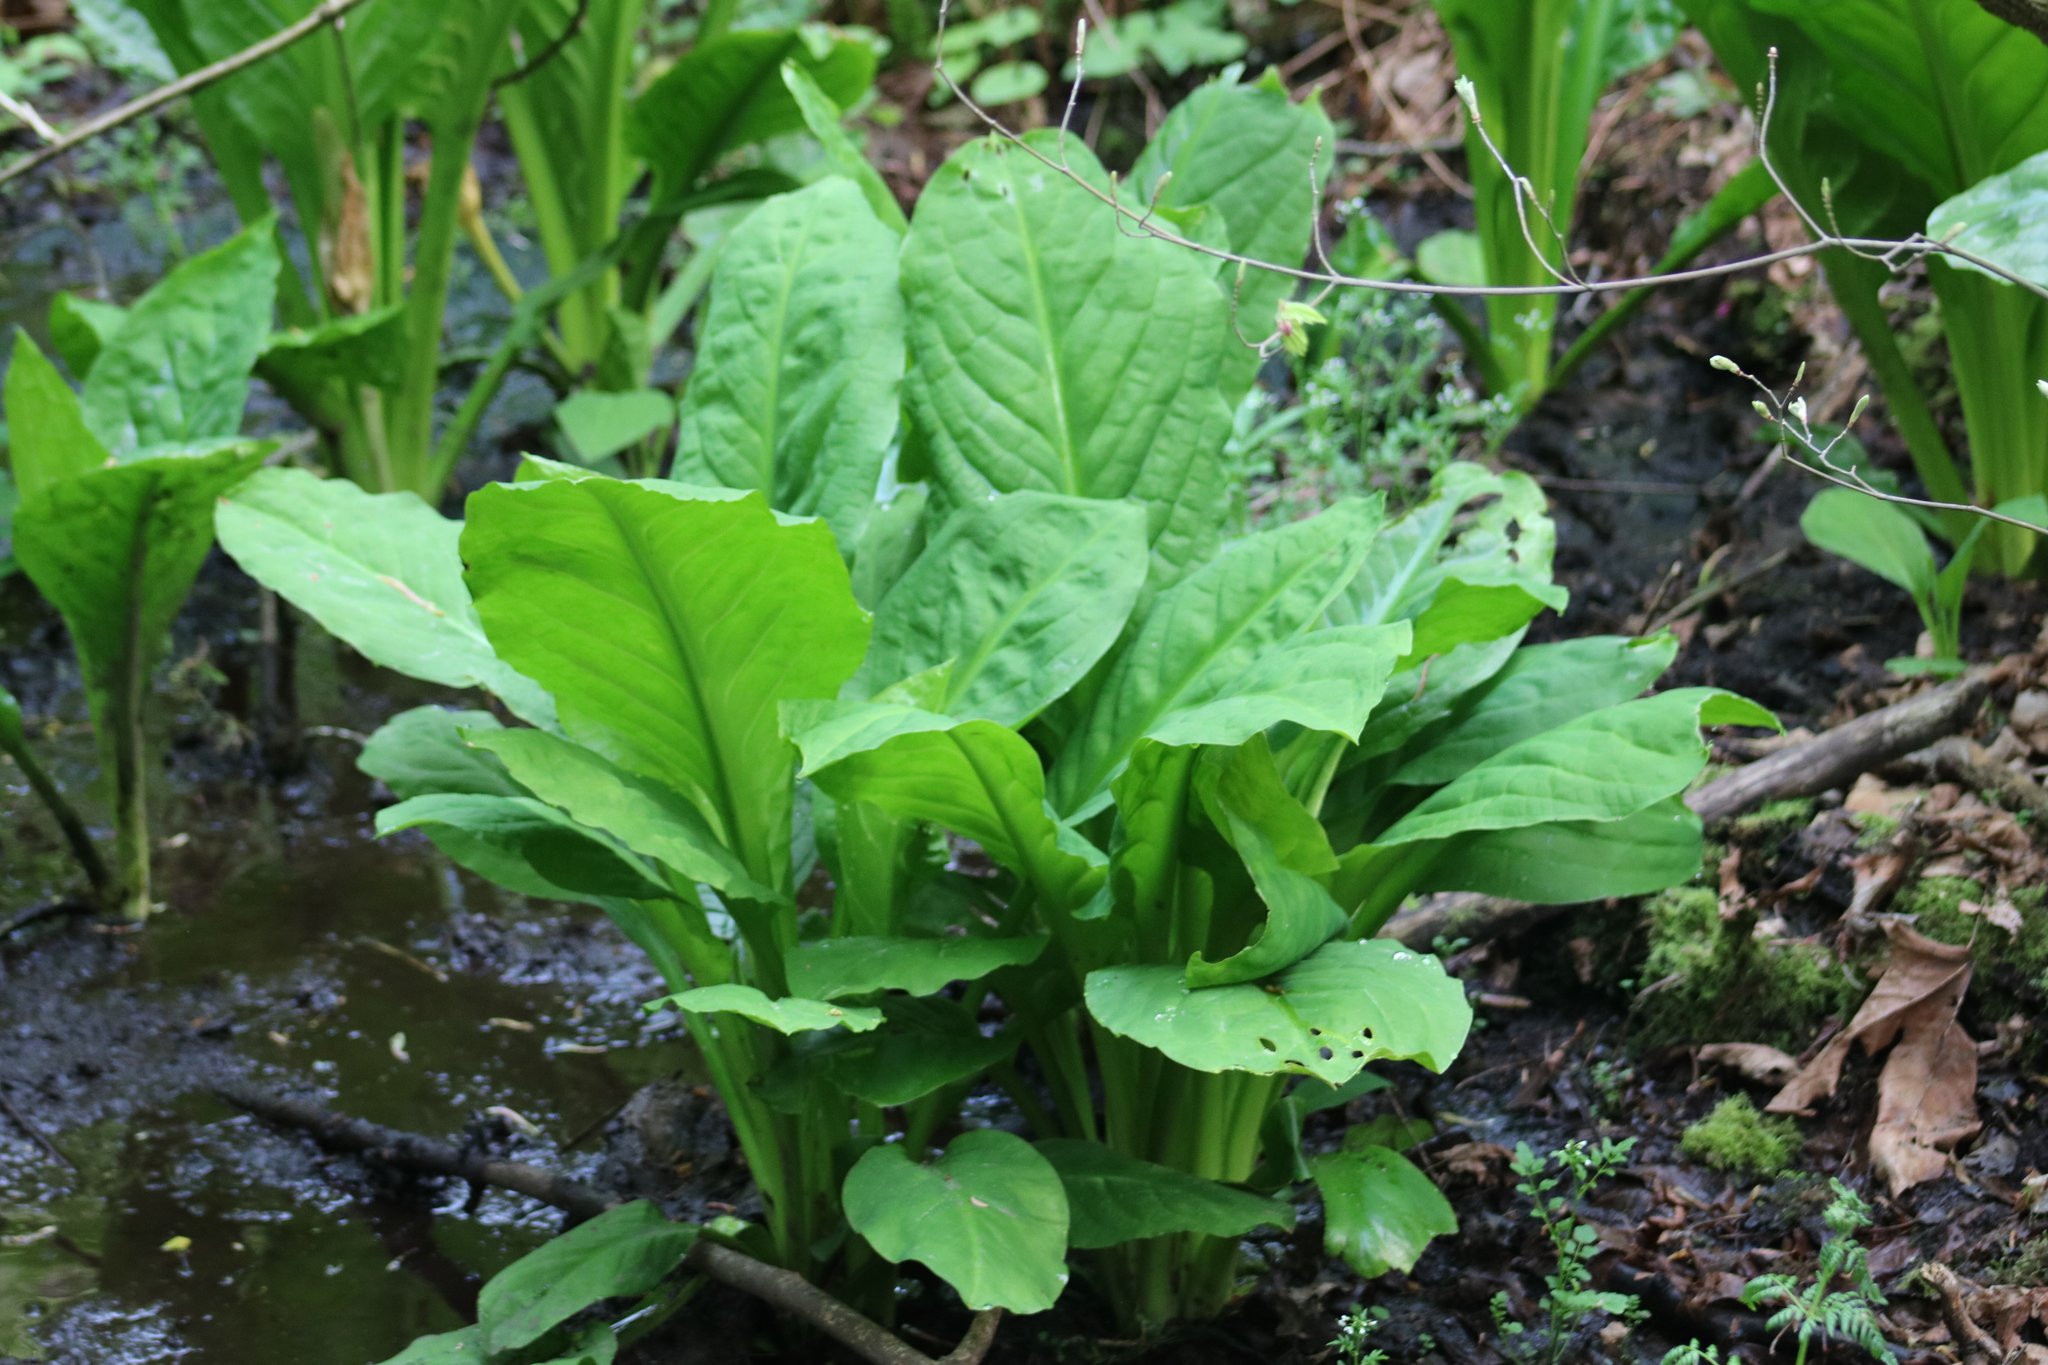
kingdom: Plantae
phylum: Tracheophyta
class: Liliopsida
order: Alismatales
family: Araceae
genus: Lysichiton
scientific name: Lysichiton americanus
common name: American skunk cabbage
